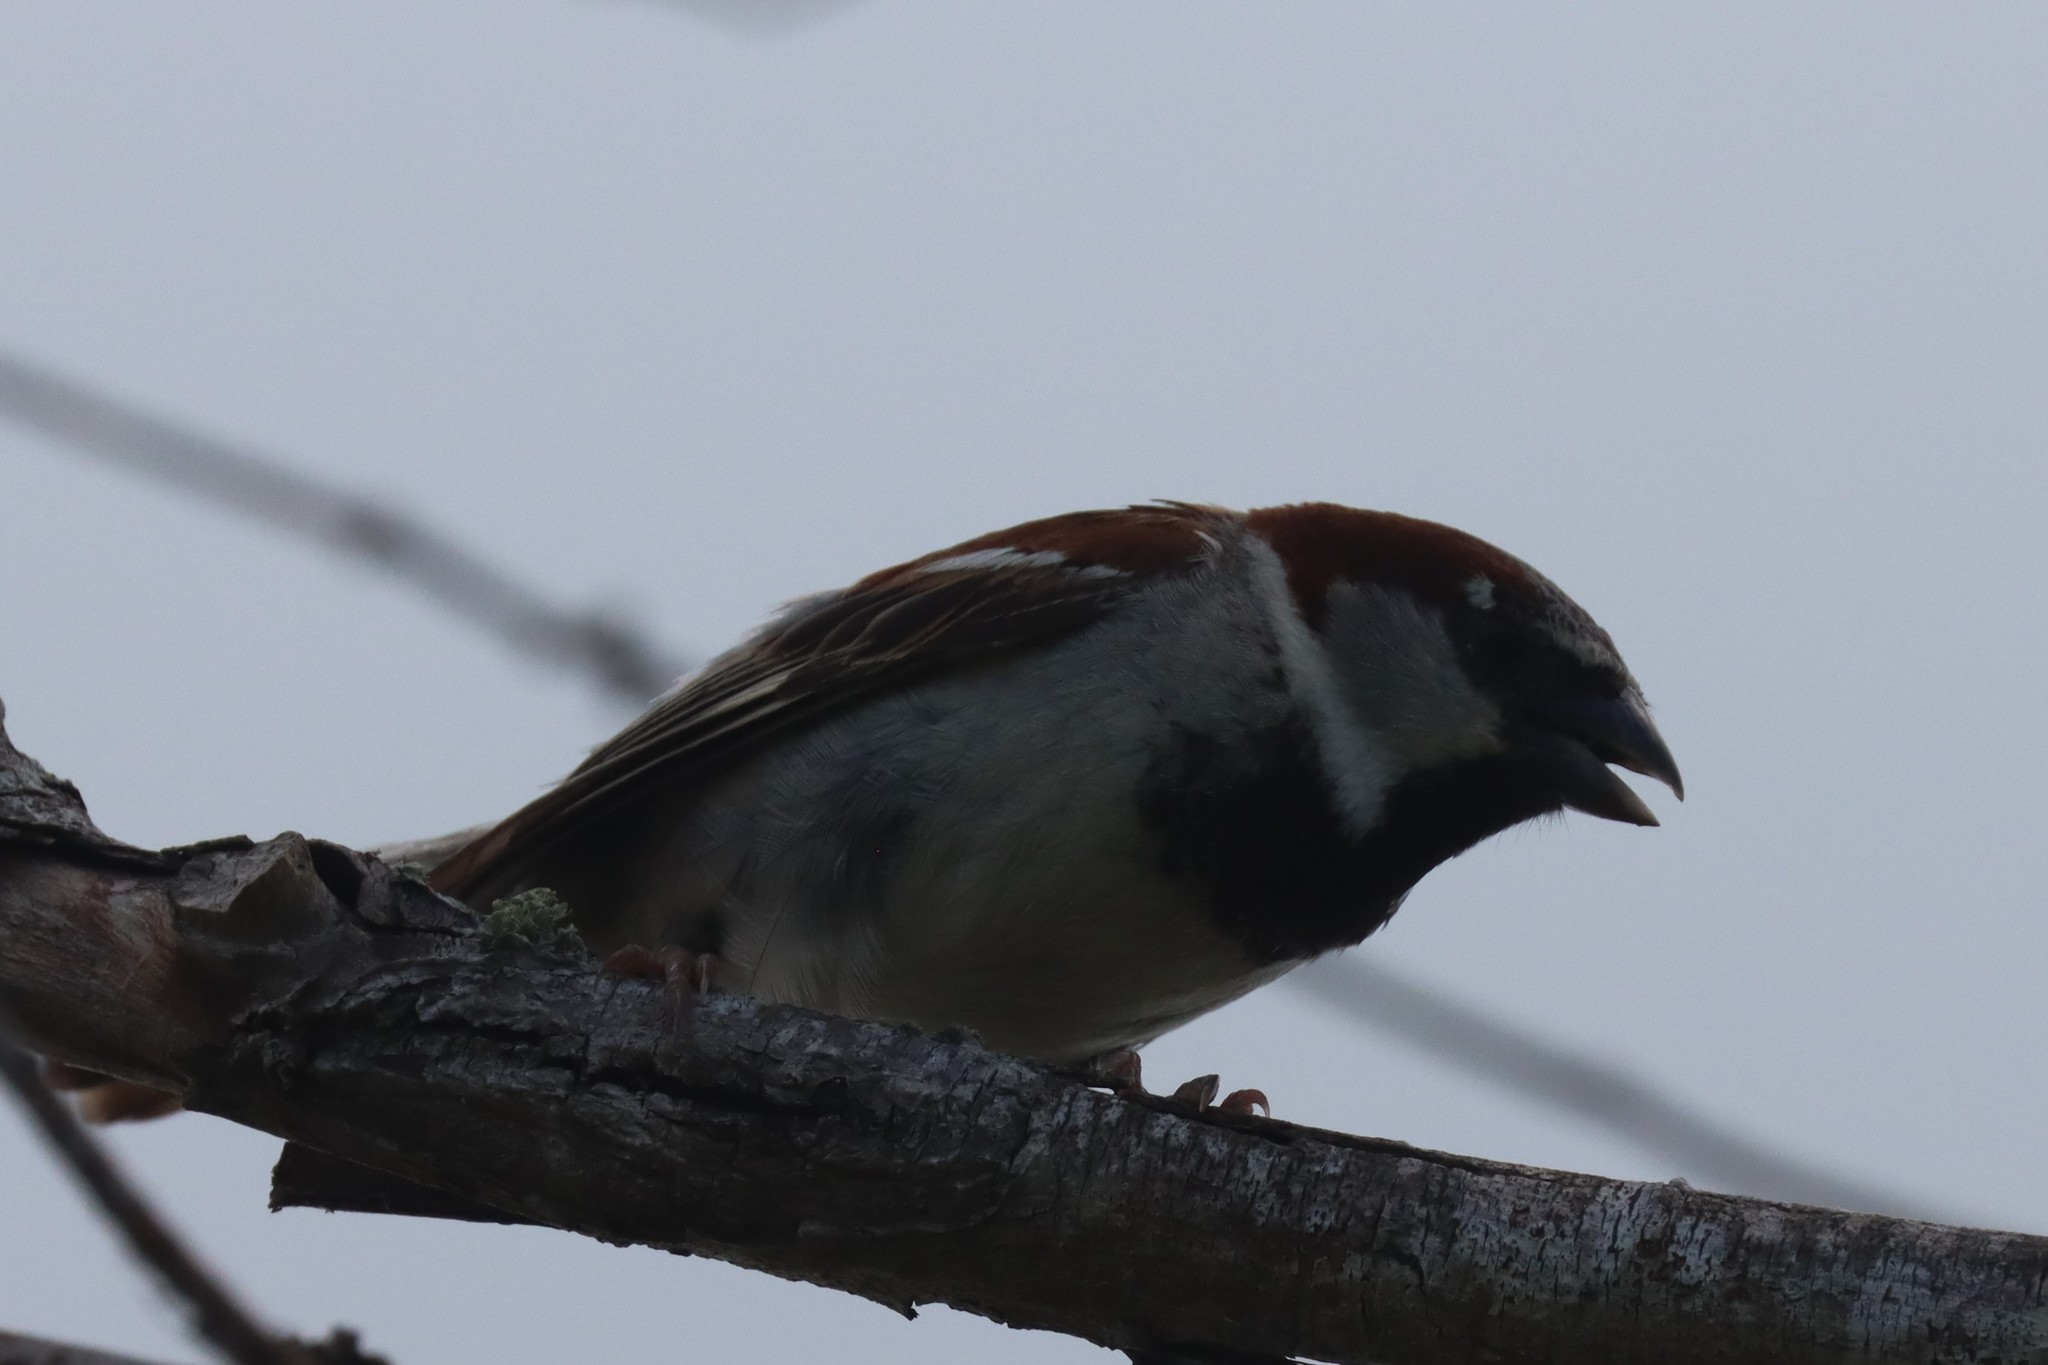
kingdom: Animalia
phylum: Chordata
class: Aves
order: Passeriformes
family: Passeridae
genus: Passer
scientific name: Passer domesticus
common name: House sparrow
